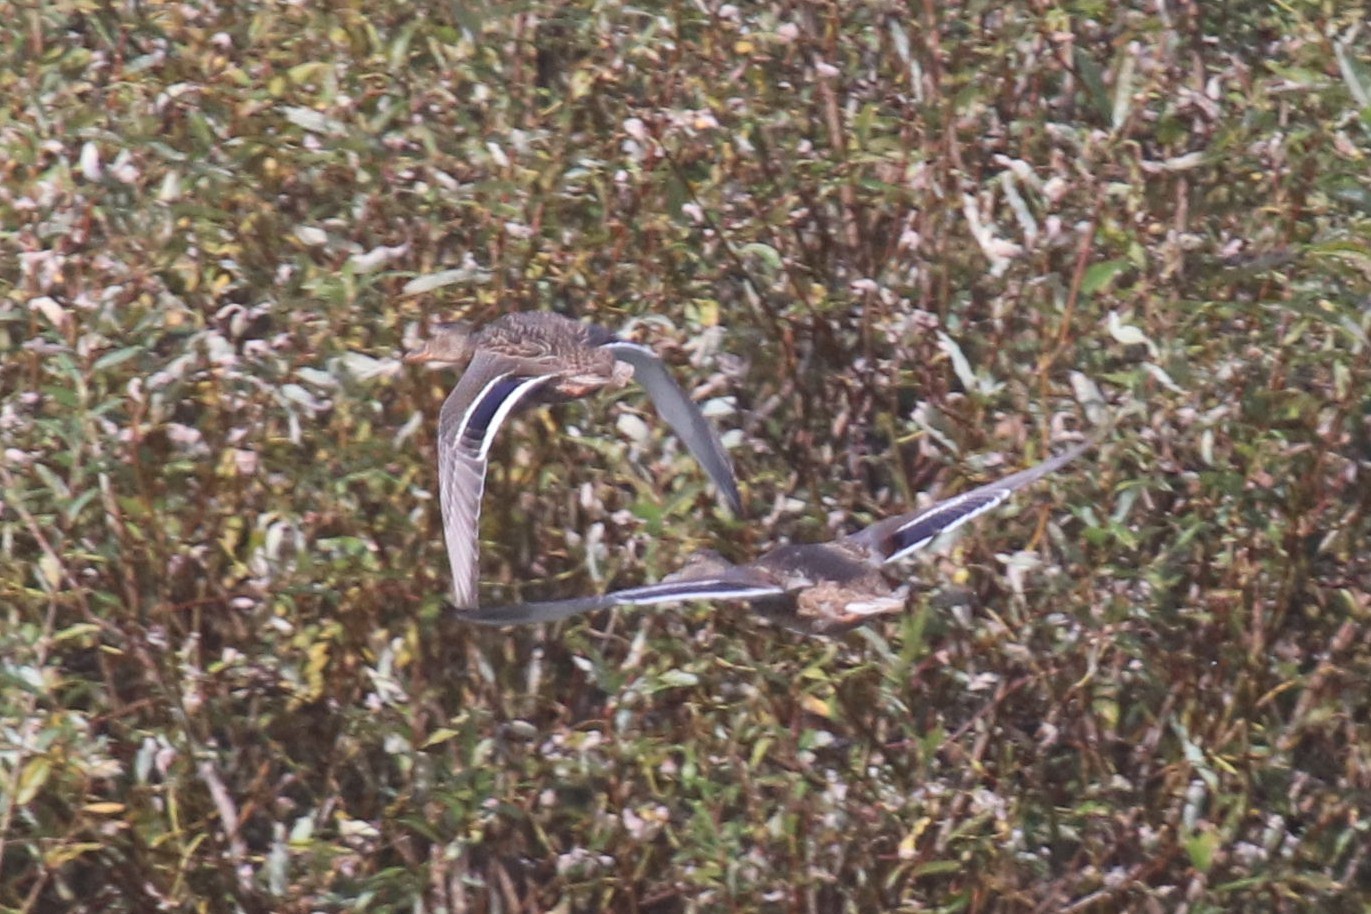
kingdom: Animalia
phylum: Chordata
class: Aves
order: Anseriformes
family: Anatidae
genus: Anas
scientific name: Anas platyrhynchos
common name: Mallard
